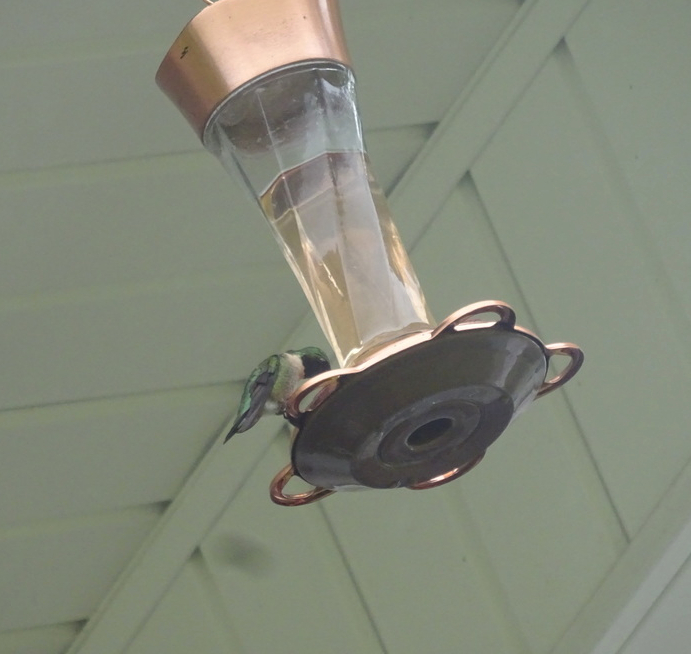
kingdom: Animalia
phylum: Chordata
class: Aves
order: Apodiformes
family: Trochilidae
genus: Archilochus
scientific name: Archilochus colubris
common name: Ruby-throated hummingbird
